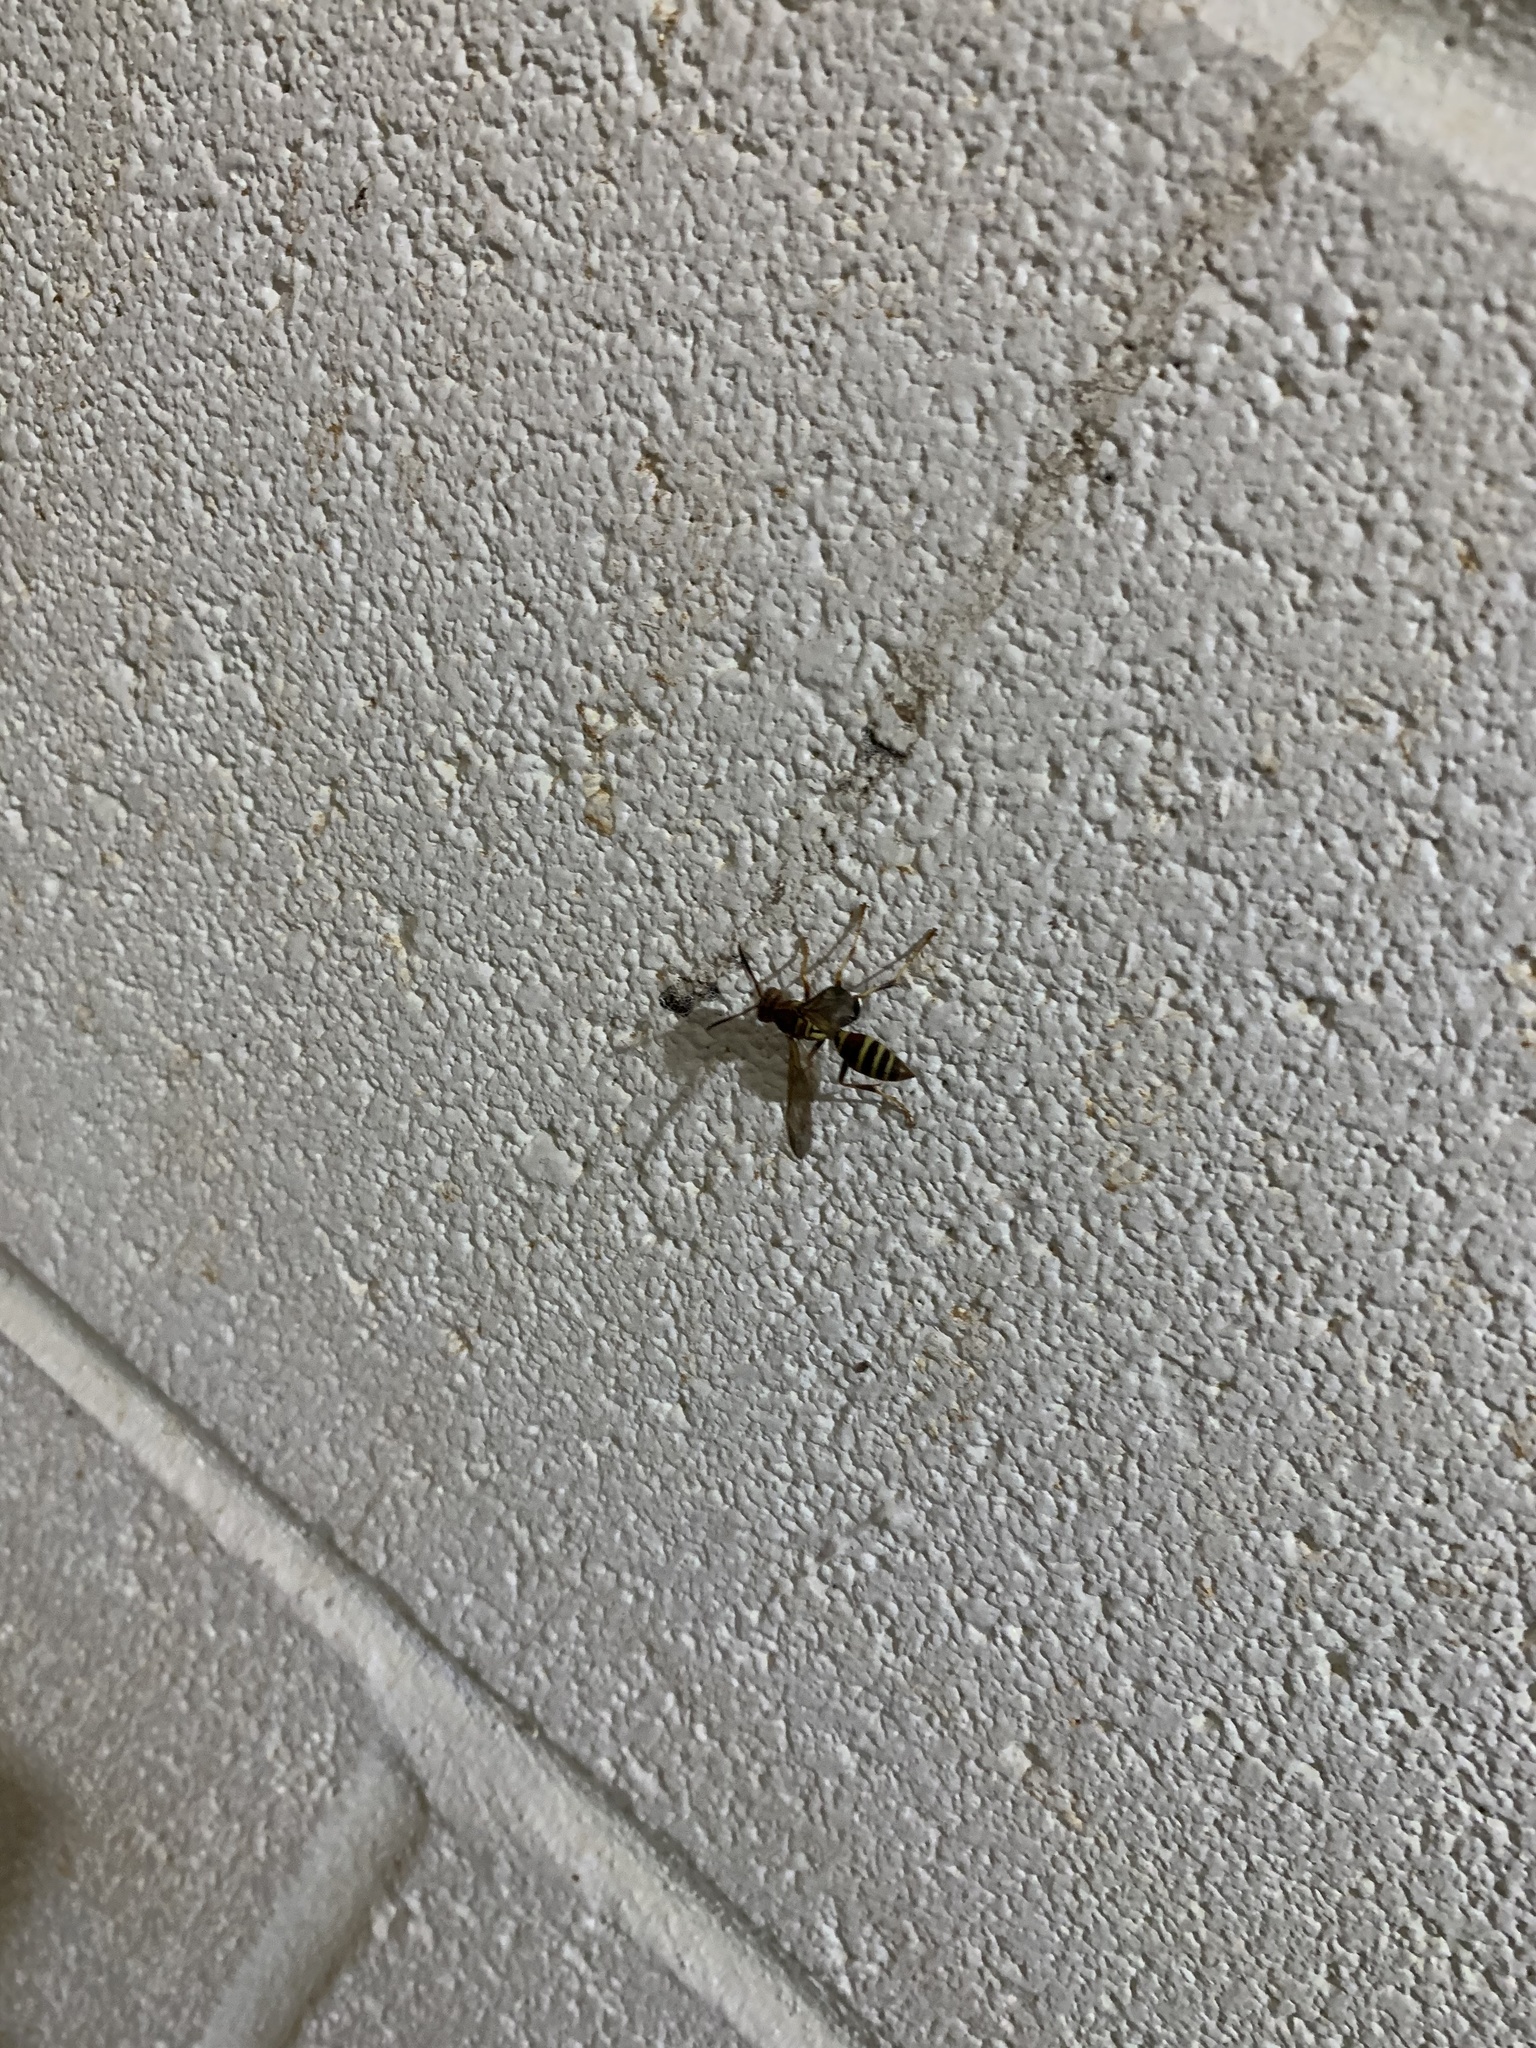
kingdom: Animalia
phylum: Arthropoda
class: Insecta
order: Hymenoptera
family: Eumenidae
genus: Polistes
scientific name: Polistes dorsalis
